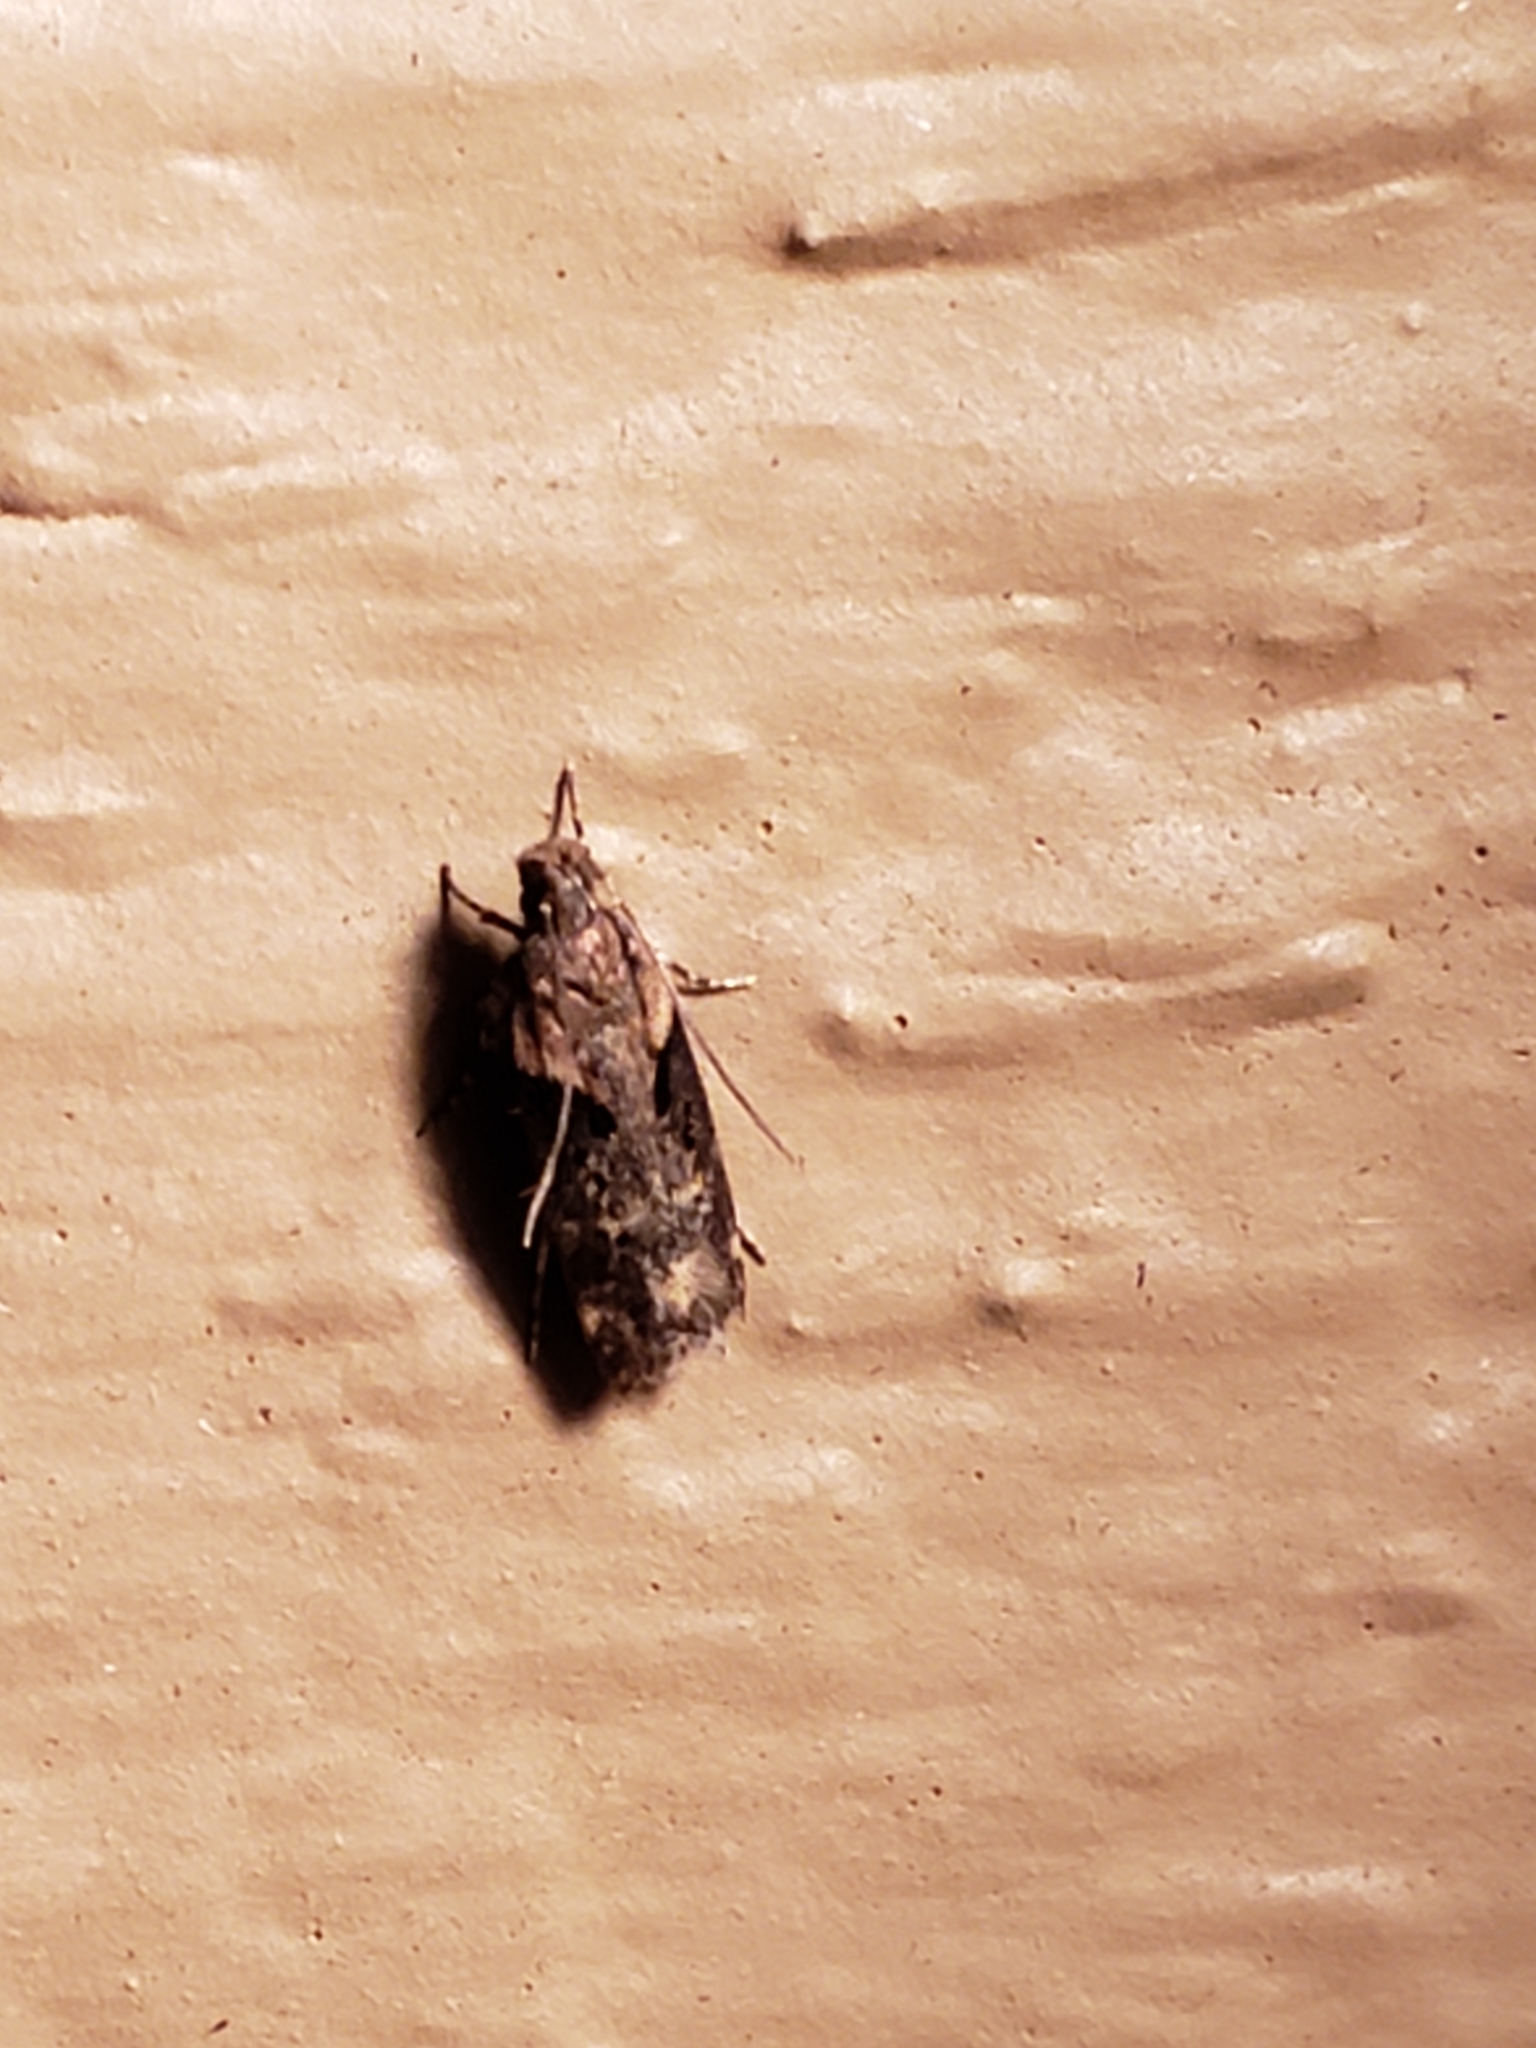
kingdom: Animalia
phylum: Arthropoda
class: Insecta
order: Lepidoptera
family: Gelechiidae
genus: Chionodes
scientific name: Chionodes mediofuscella
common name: Black-smudged chionodes moth
